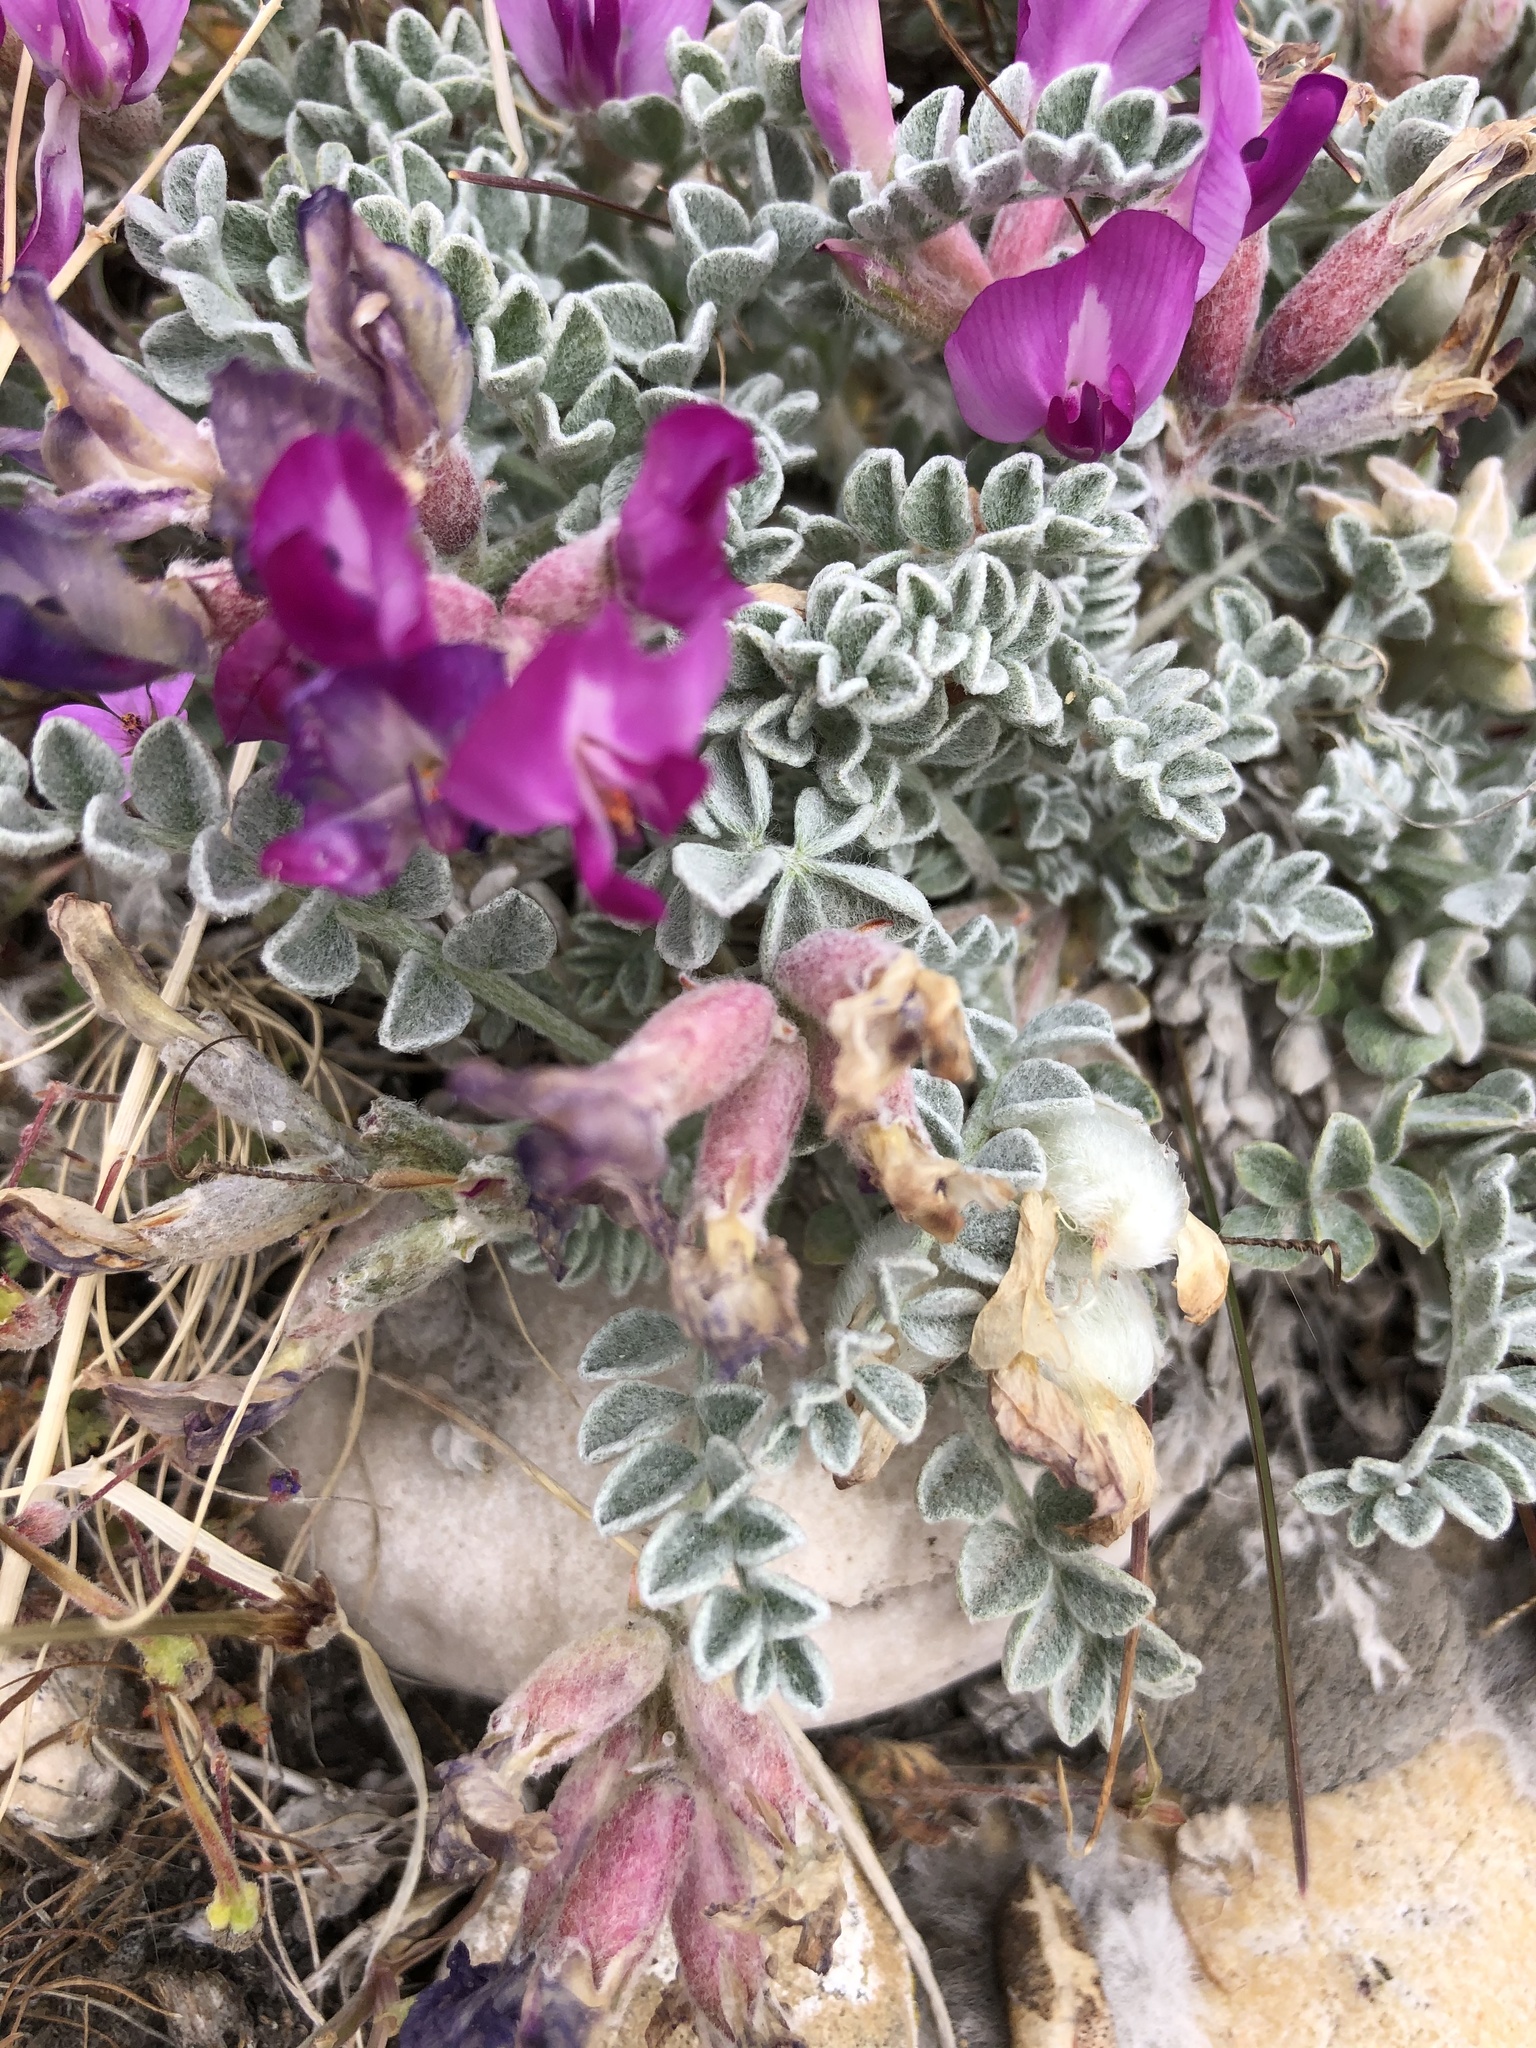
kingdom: Plantae
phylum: Tracheophyta
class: Magnoliopsida
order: Fabales
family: Fabaceae
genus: Astragalus
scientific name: Astragalus utahensis
